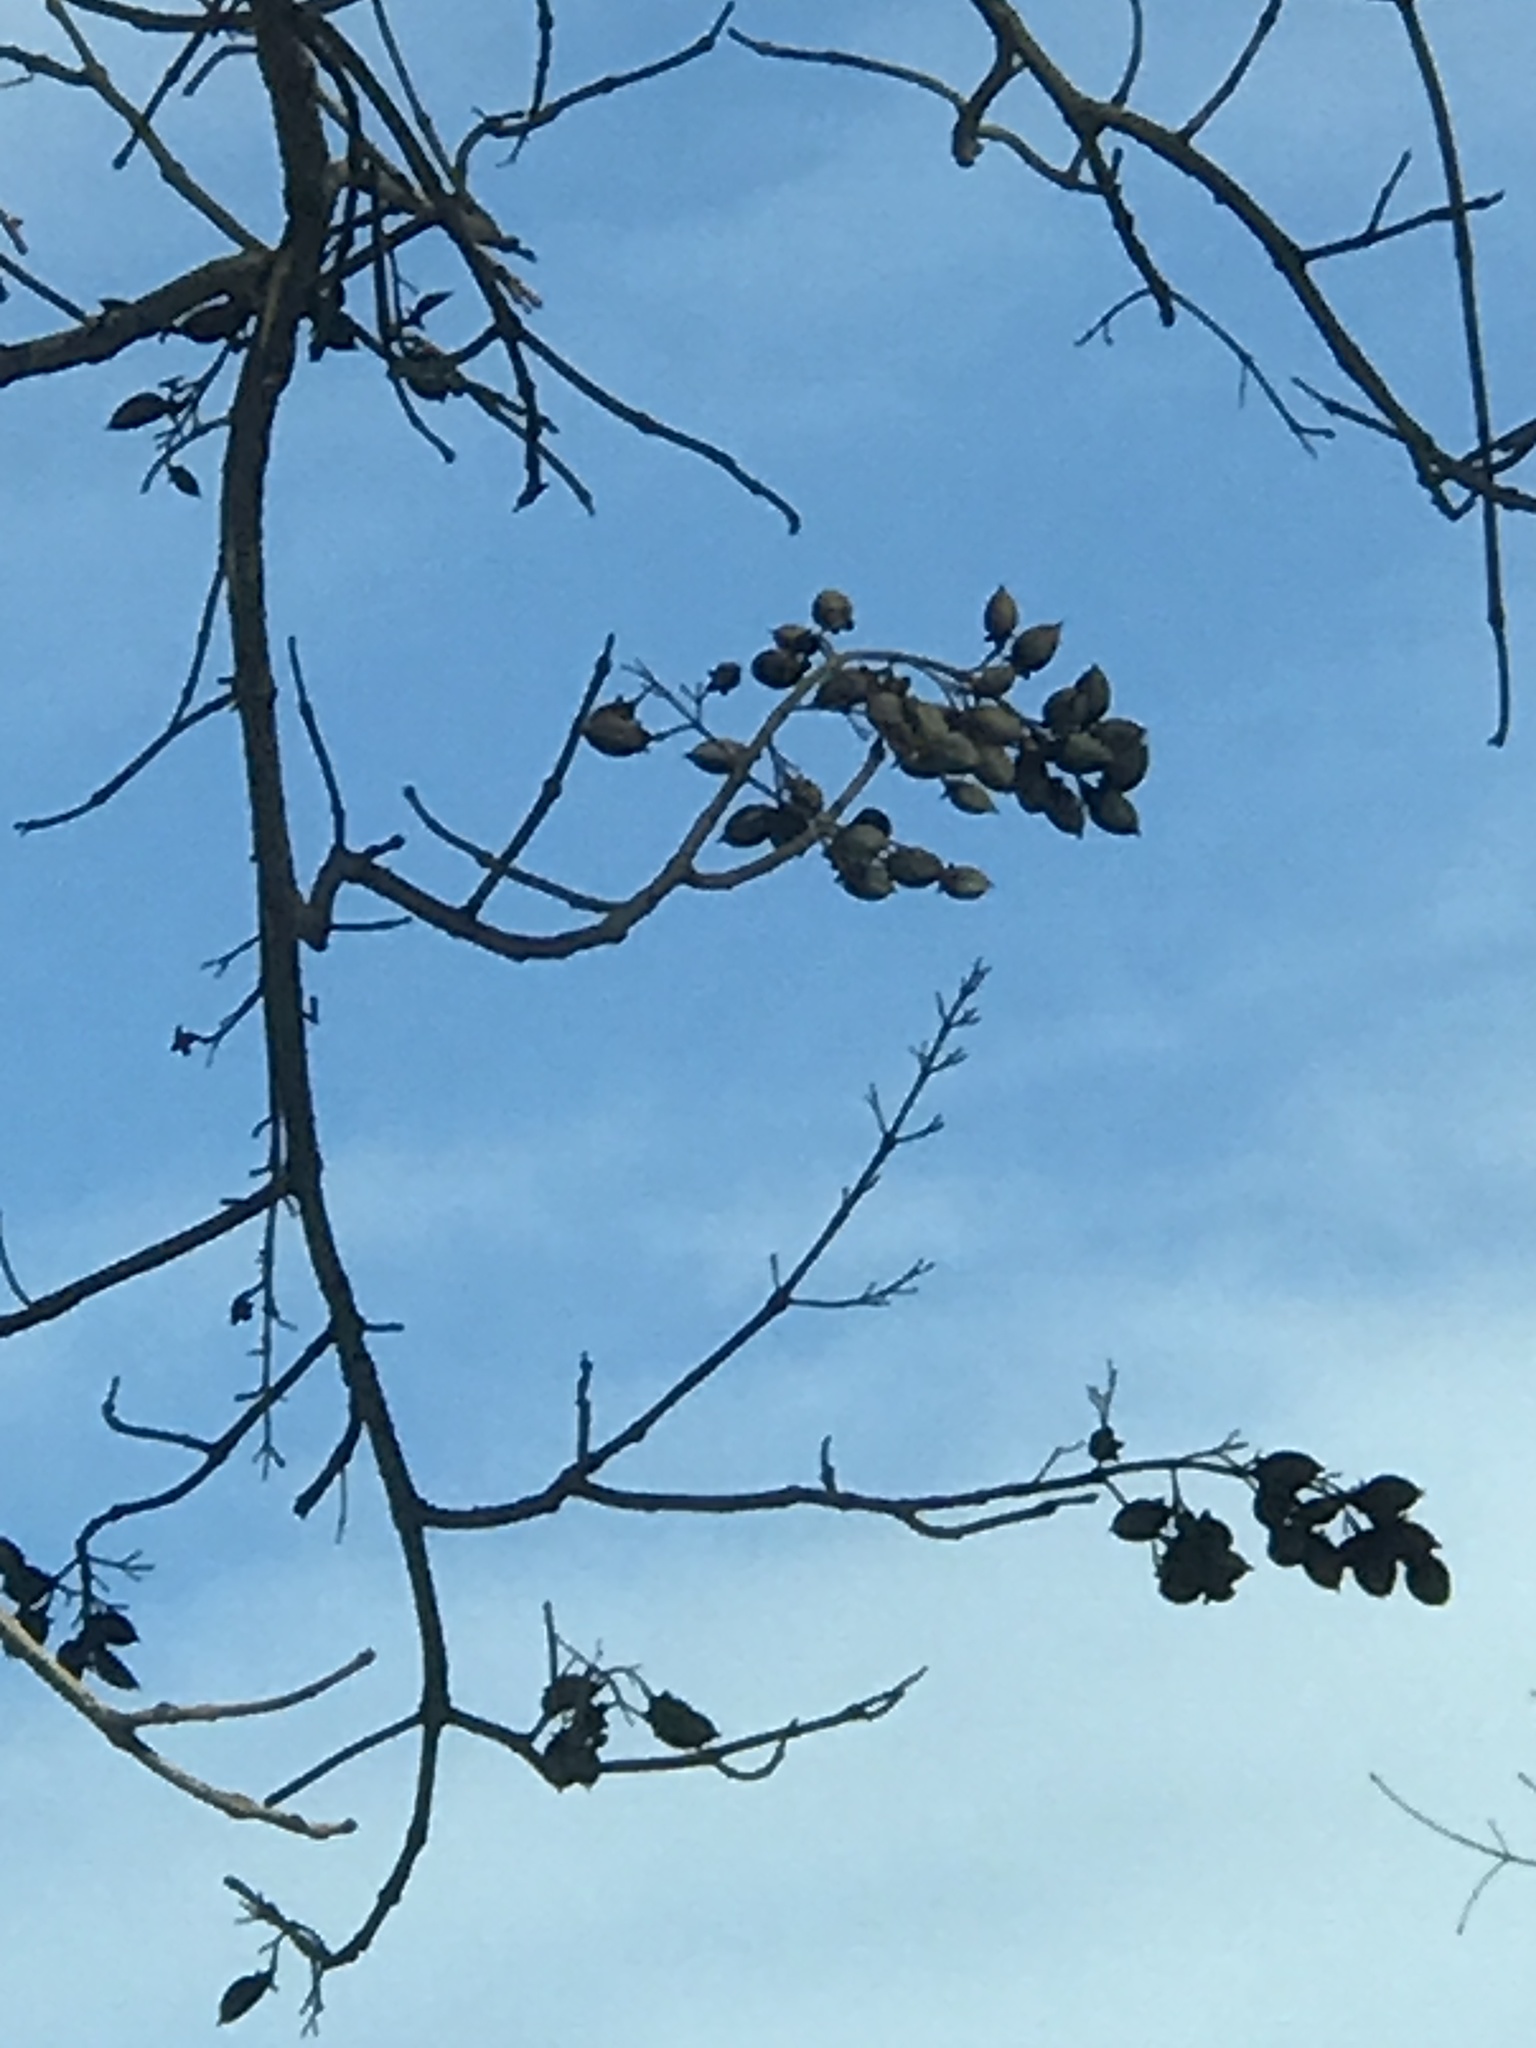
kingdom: Plantae
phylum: Tracheophyta
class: Magnoliopsida
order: Lamiales
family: Paulowniaceae
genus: Paulownia
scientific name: Paulownia tomentosa
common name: Foxglove-tree
